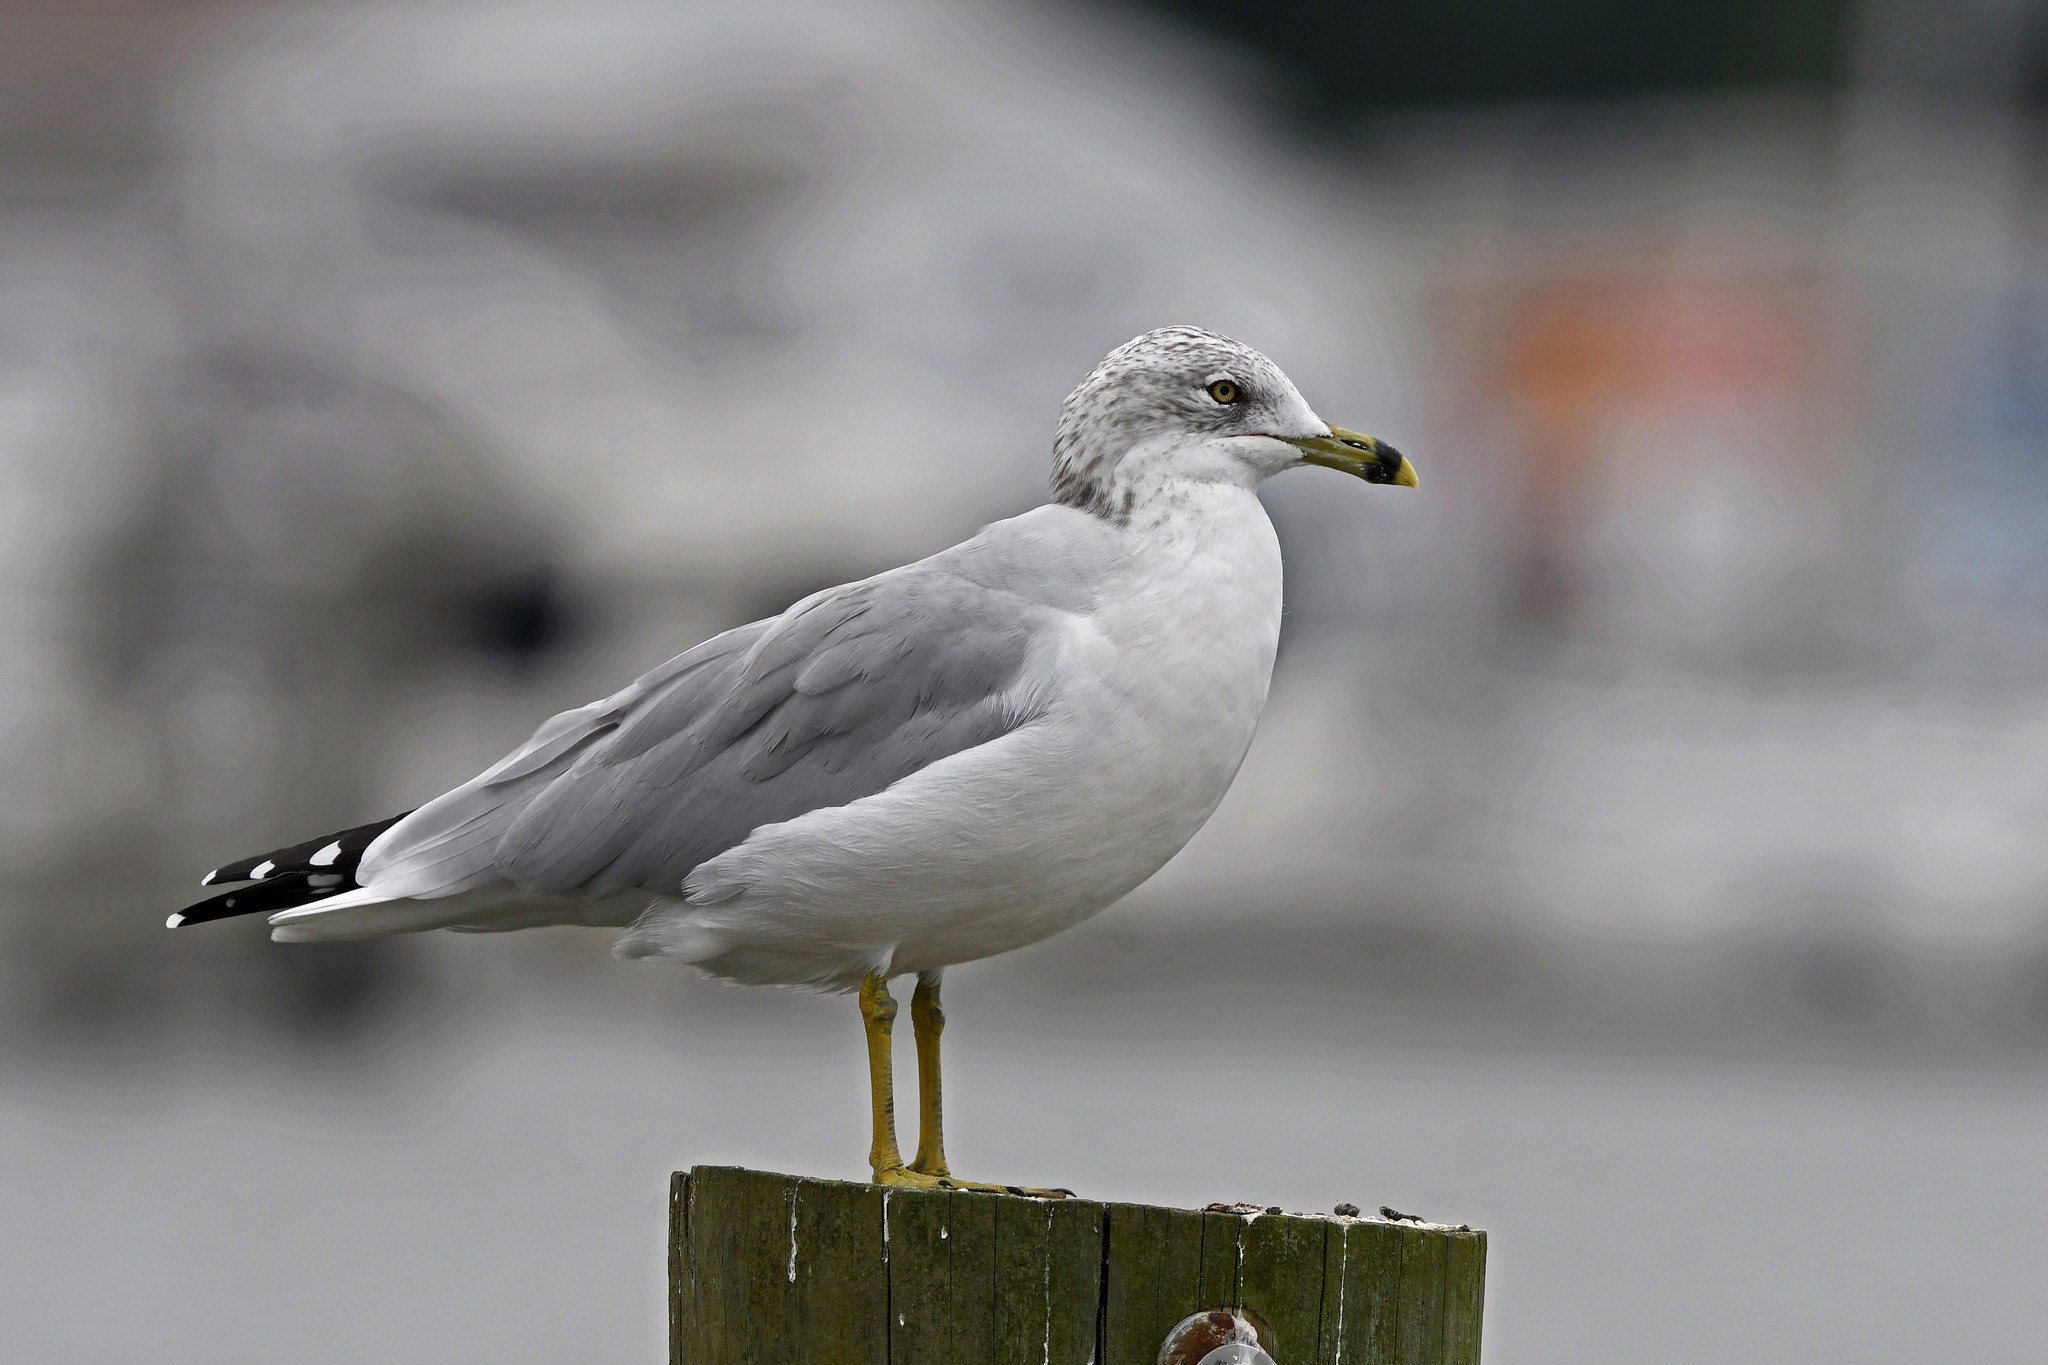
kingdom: Animalia
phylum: Chordata
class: Aves
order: Charadriiformes
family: Laridae
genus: Larus
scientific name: Larus delawarensis
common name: Ring-billed gull
